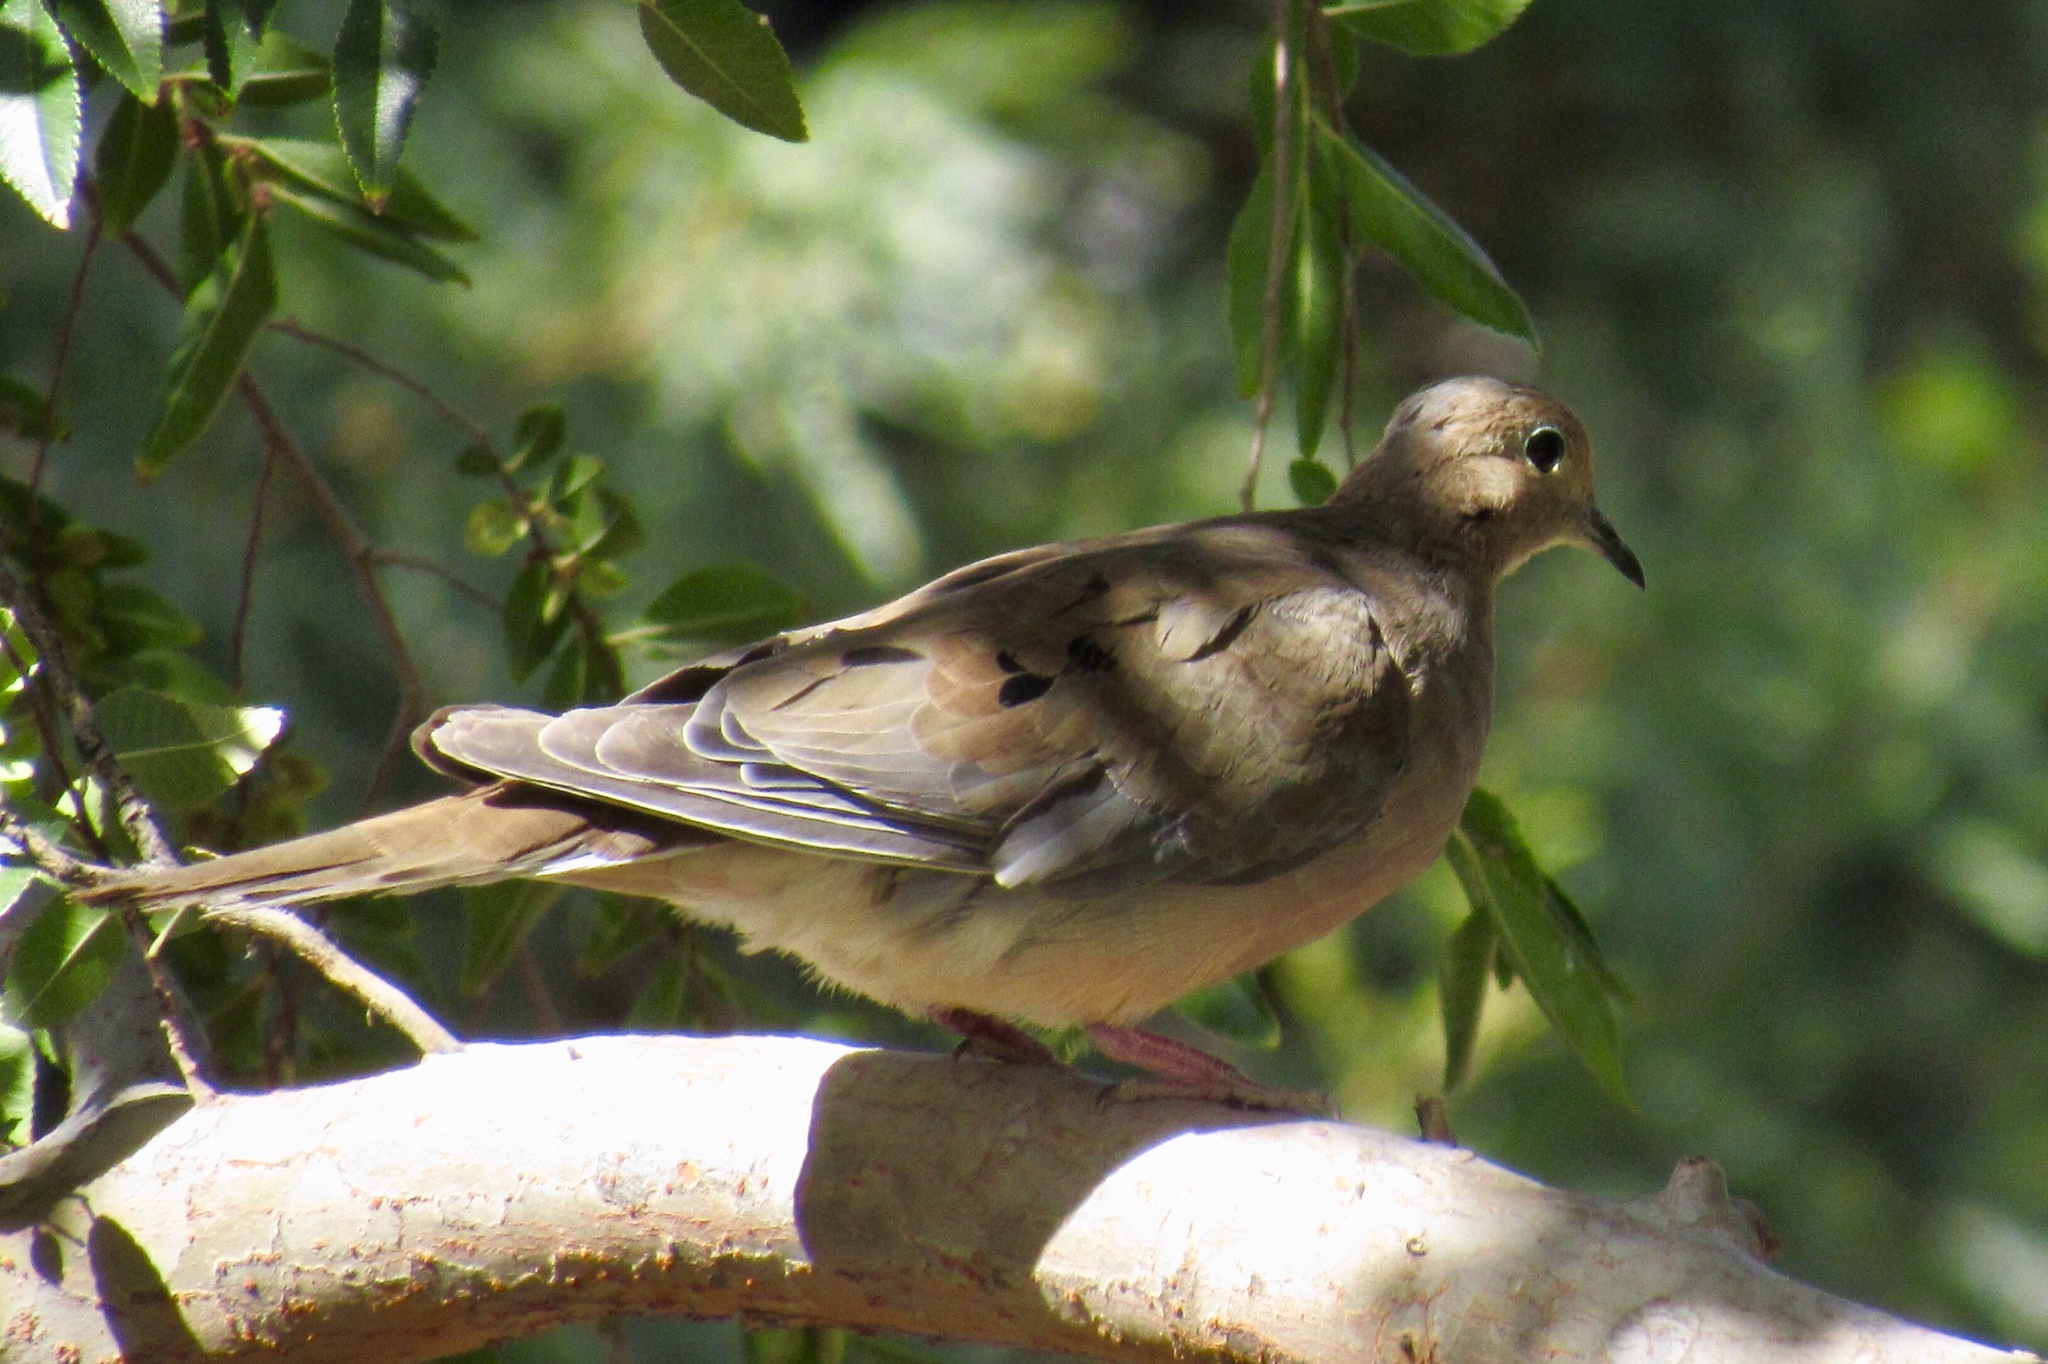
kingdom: Animalia
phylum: Chordata
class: Aves
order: Columbiformes
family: Columbidae
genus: Zenaida
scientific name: Zenaida macroura
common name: Mourning dove
